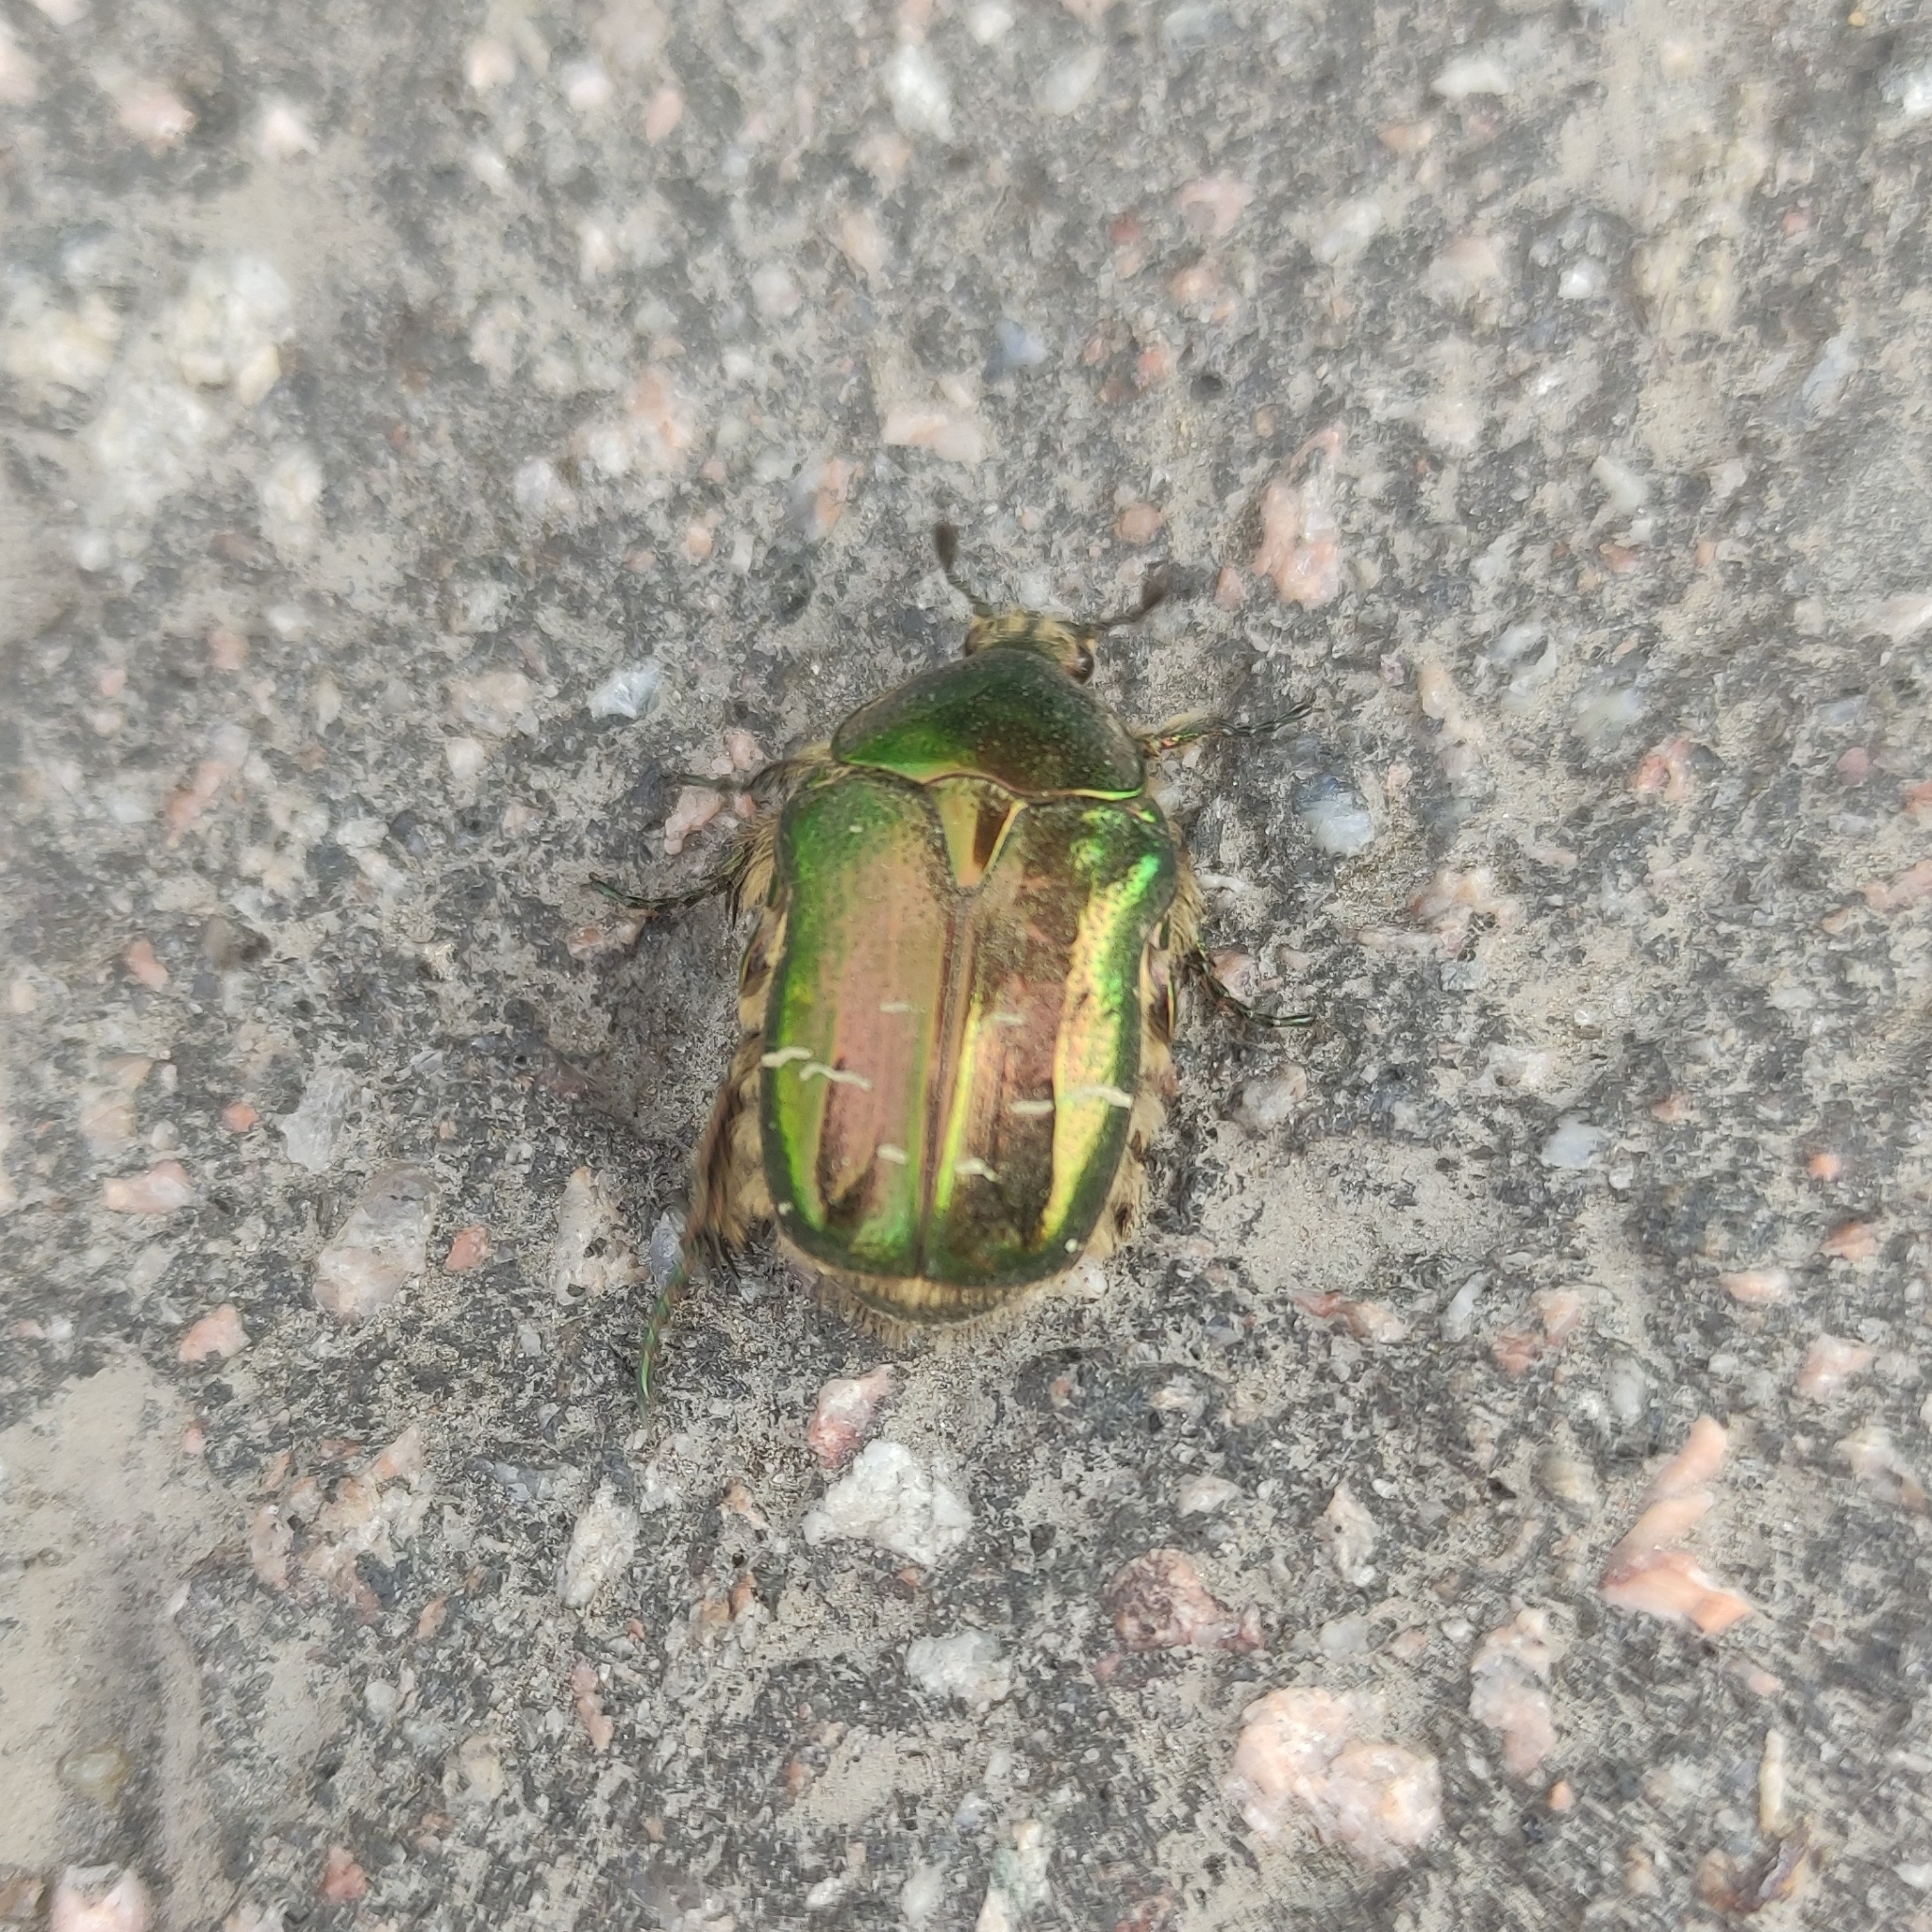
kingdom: Animalia
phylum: Arthropoda
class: Insecta
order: Coleoptera
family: Scarabaeidae
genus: Cetonia
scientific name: Cetonia aurata
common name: Rose chafer
